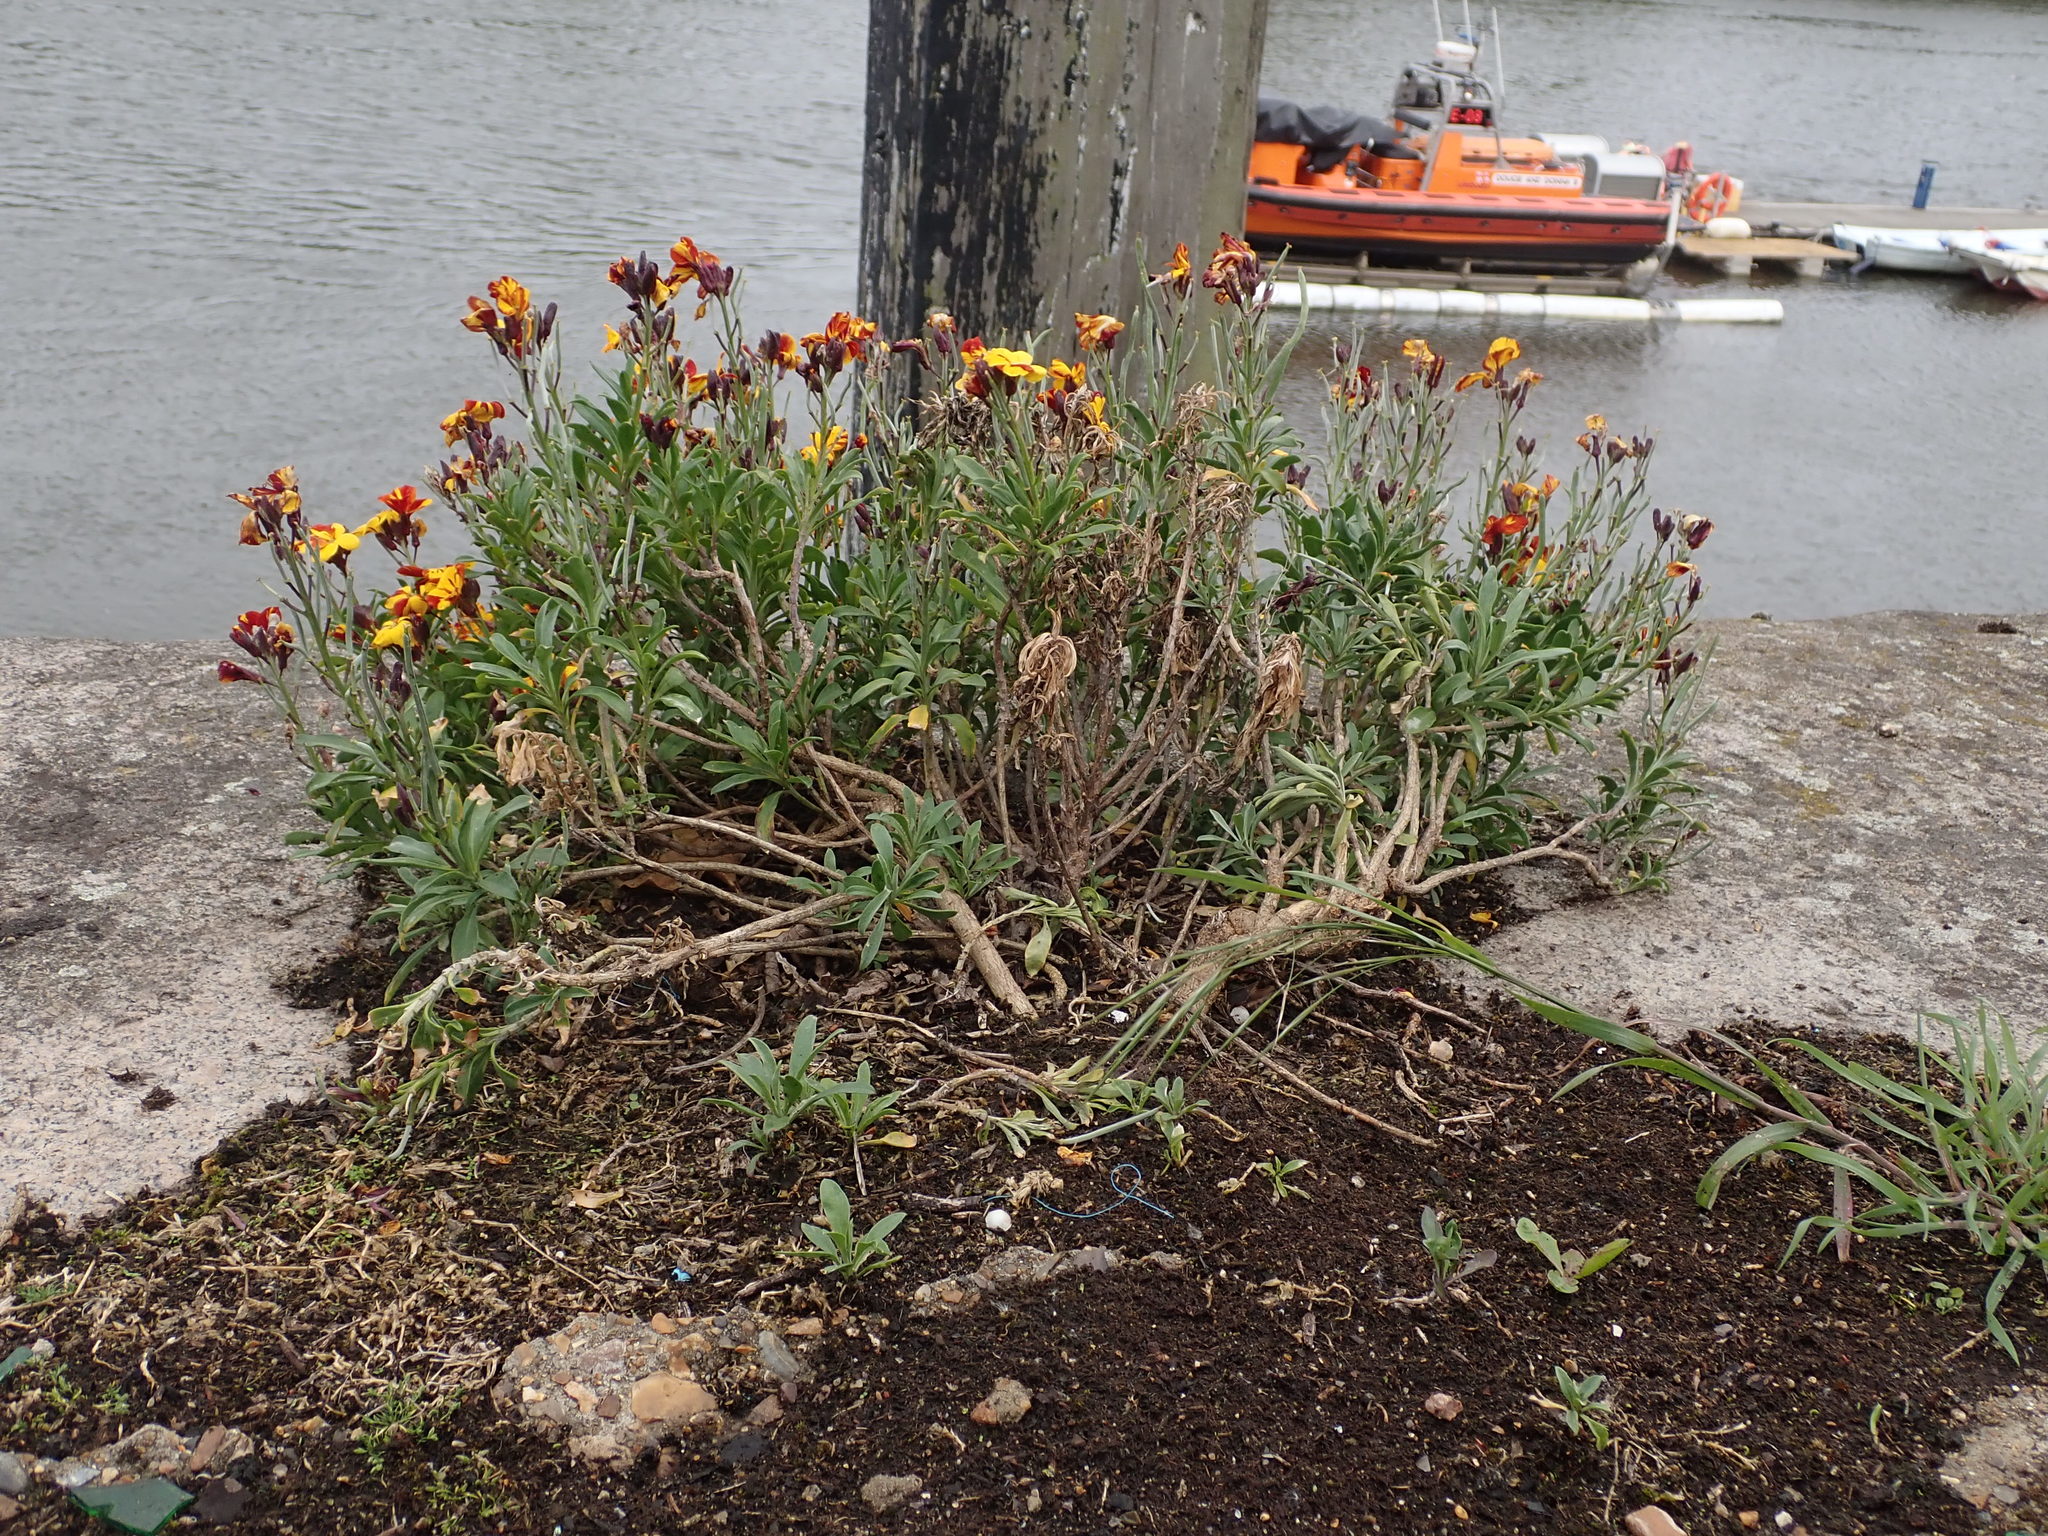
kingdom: Plantae
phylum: Tracheophyta
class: Magnoliopsida
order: Brassicales
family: Brassicaceae
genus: Erysimum
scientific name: Erysimum cheiri
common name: Wallflower
